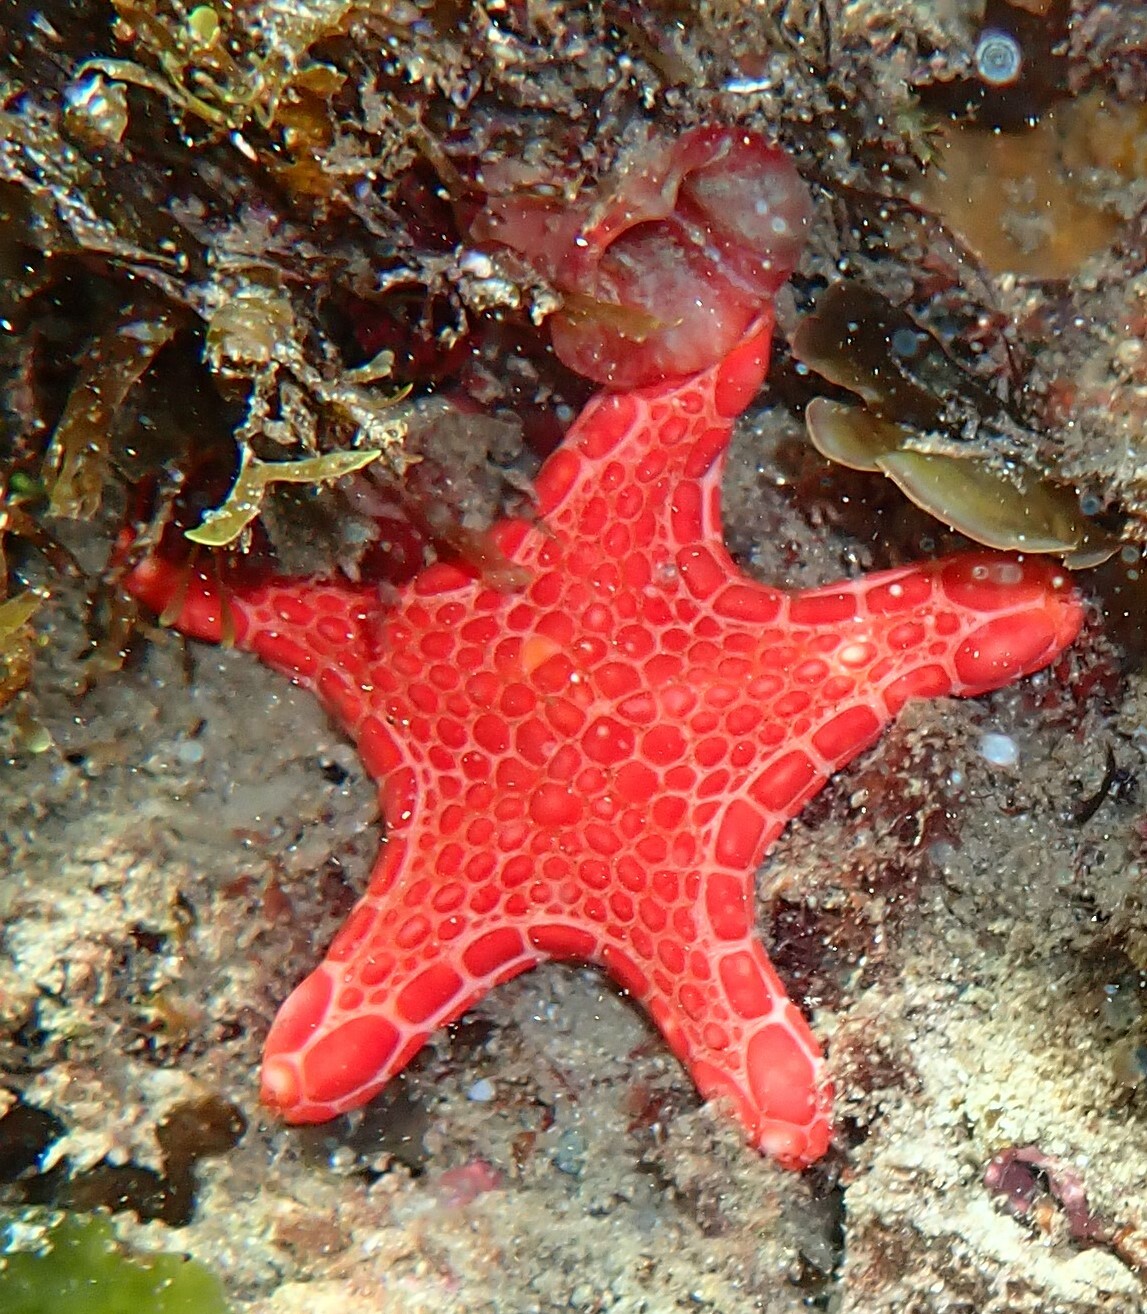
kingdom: Animalia
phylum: Echinodermata
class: Asteroidea
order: Valvatida
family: Goniasteridae
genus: Pentagonaster
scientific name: Pentagonaster duebeni
